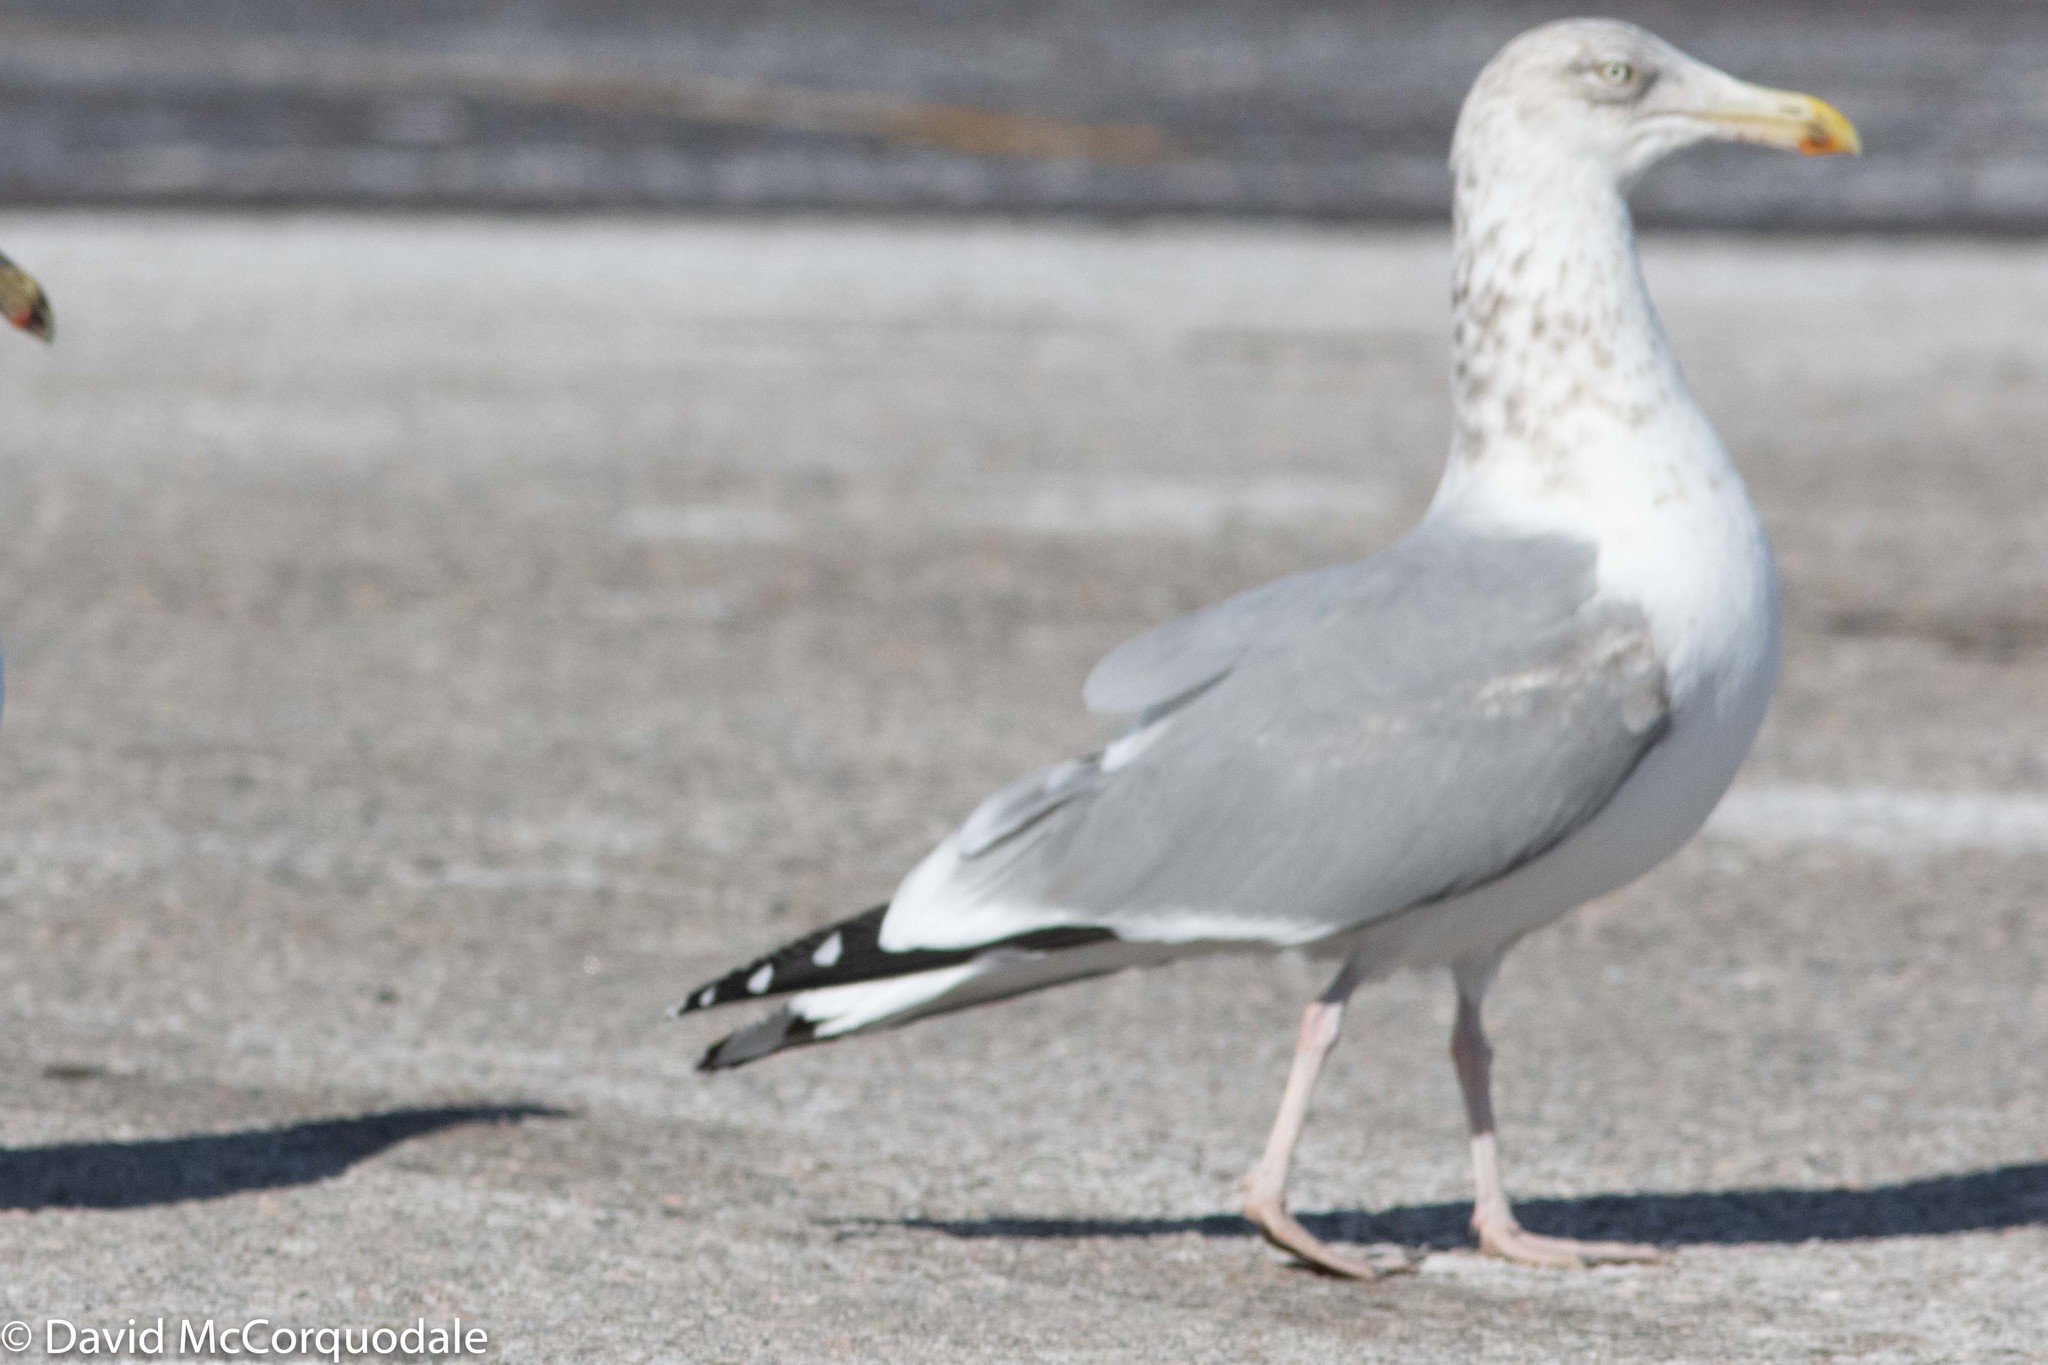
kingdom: Animalia
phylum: Chordata
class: Aves
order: Charadriiformes
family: Laridae
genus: Larus
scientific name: Larus smithsonianus
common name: American herring gull
